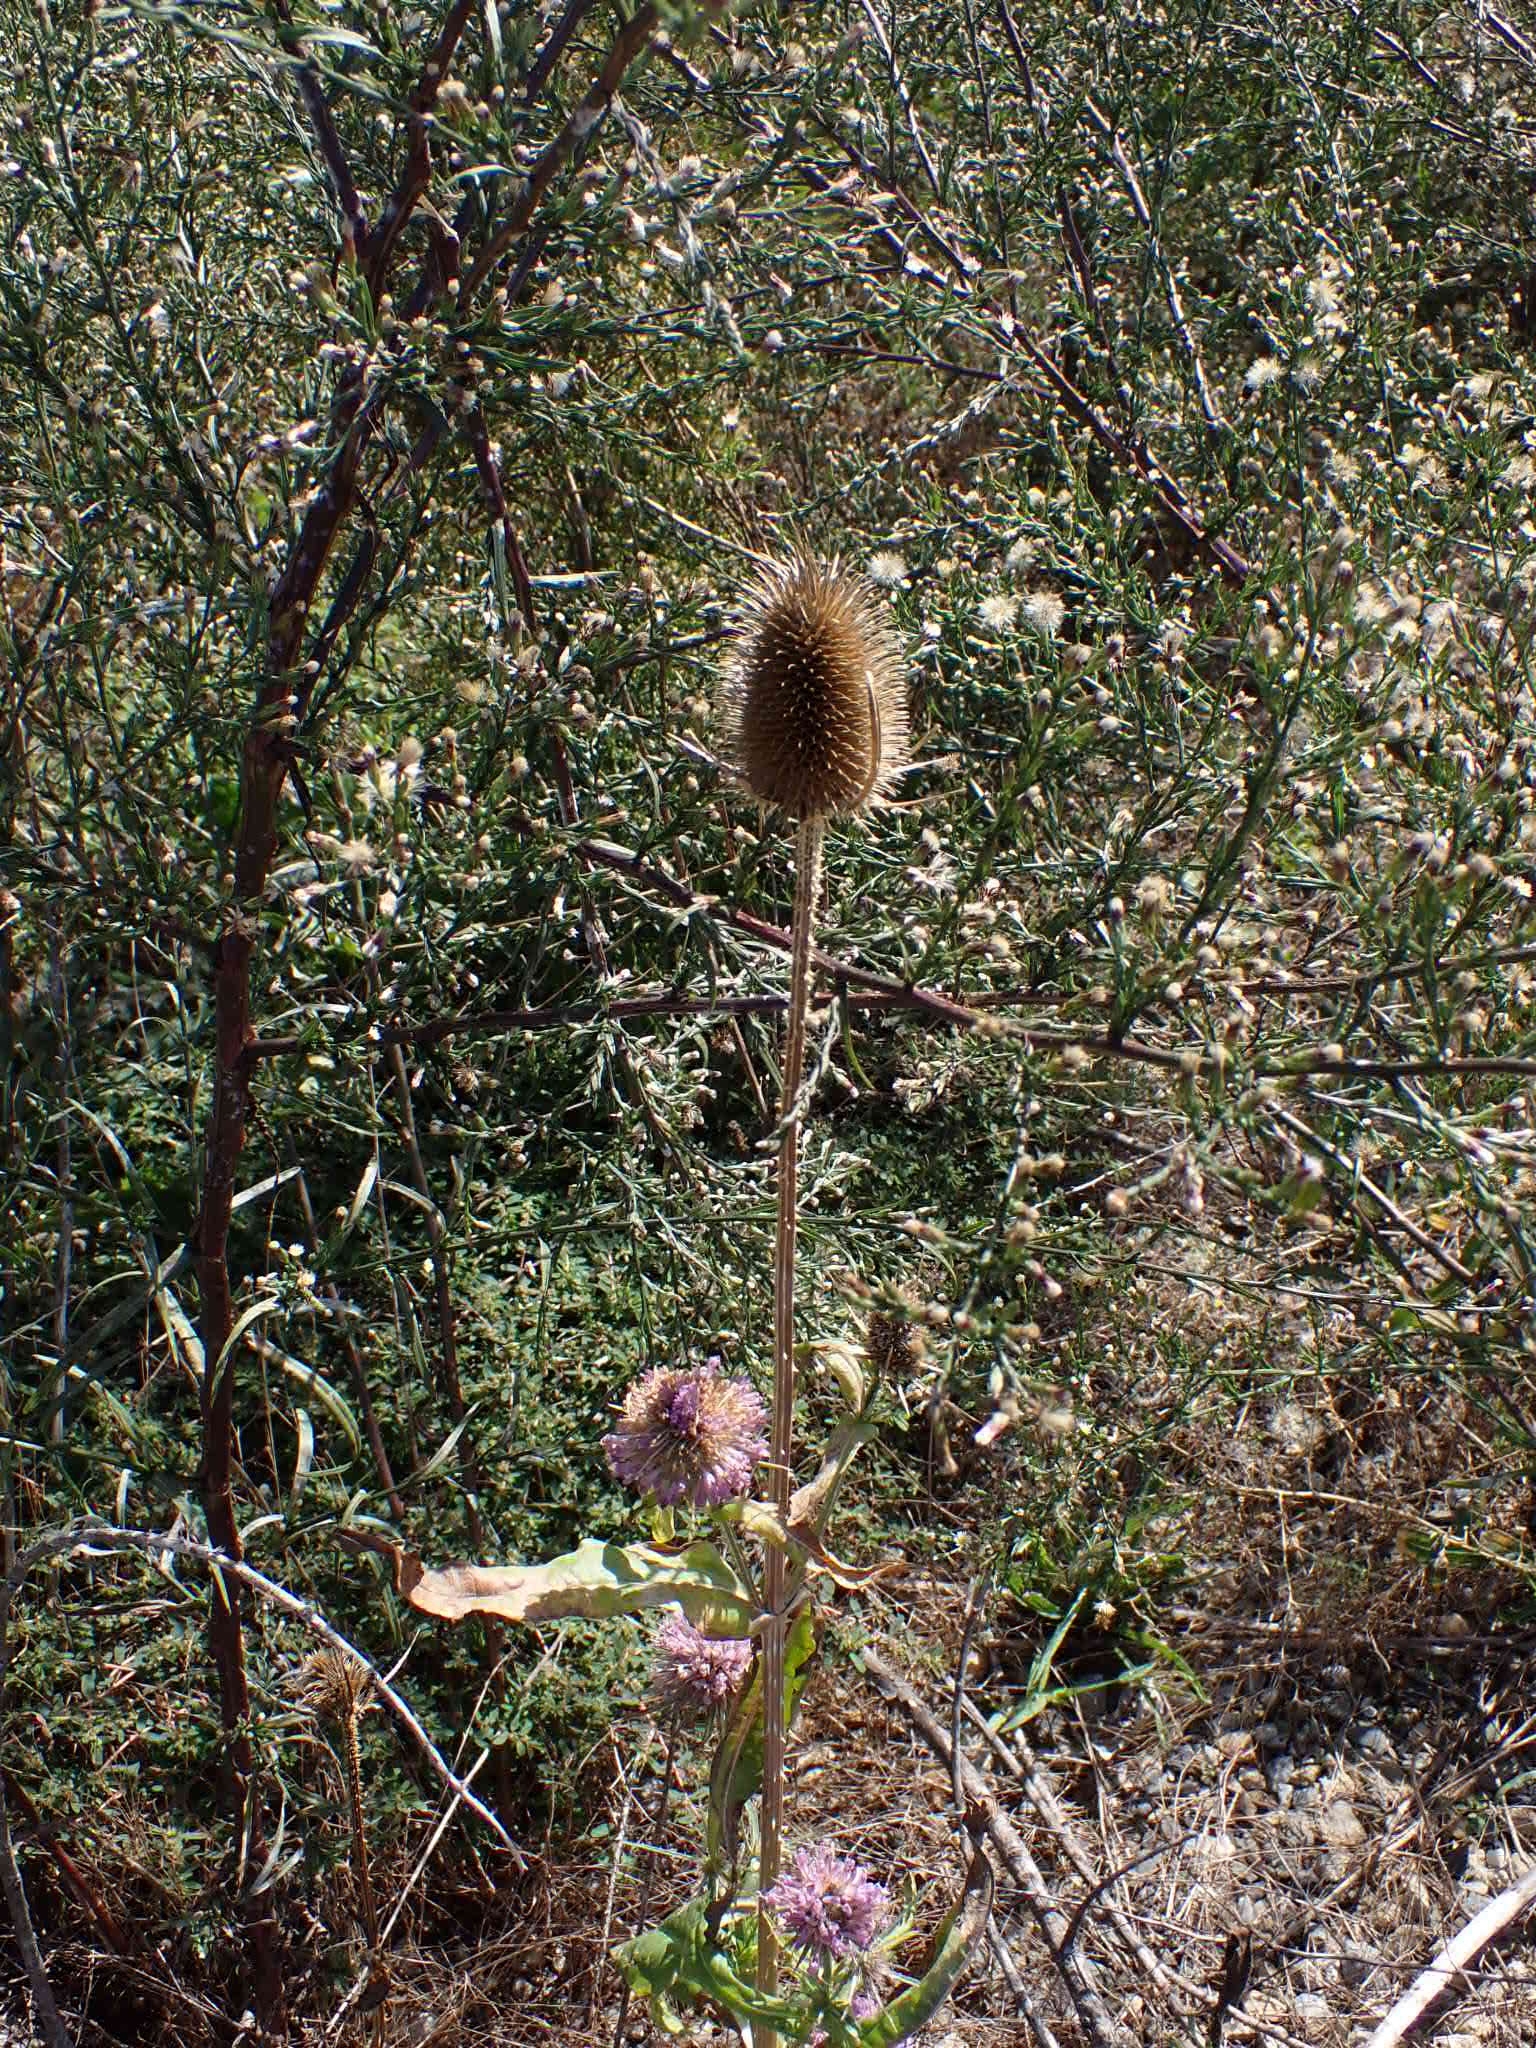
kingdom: Plantae
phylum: Tracheophyta
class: Magnoliopsida
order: Dipsacales
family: Caprifoliaceae
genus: Dipsacus
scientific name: Dipsacus fullonum
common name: Teasel
